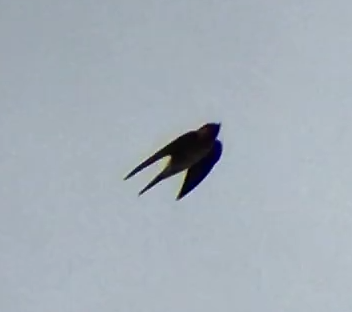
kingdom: Animalia
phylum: Chordata
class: Aves
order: Passeriformes
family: Hirundinidae
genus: Hirundo
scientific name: Hirundo neoxena
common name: Welcome swallow
